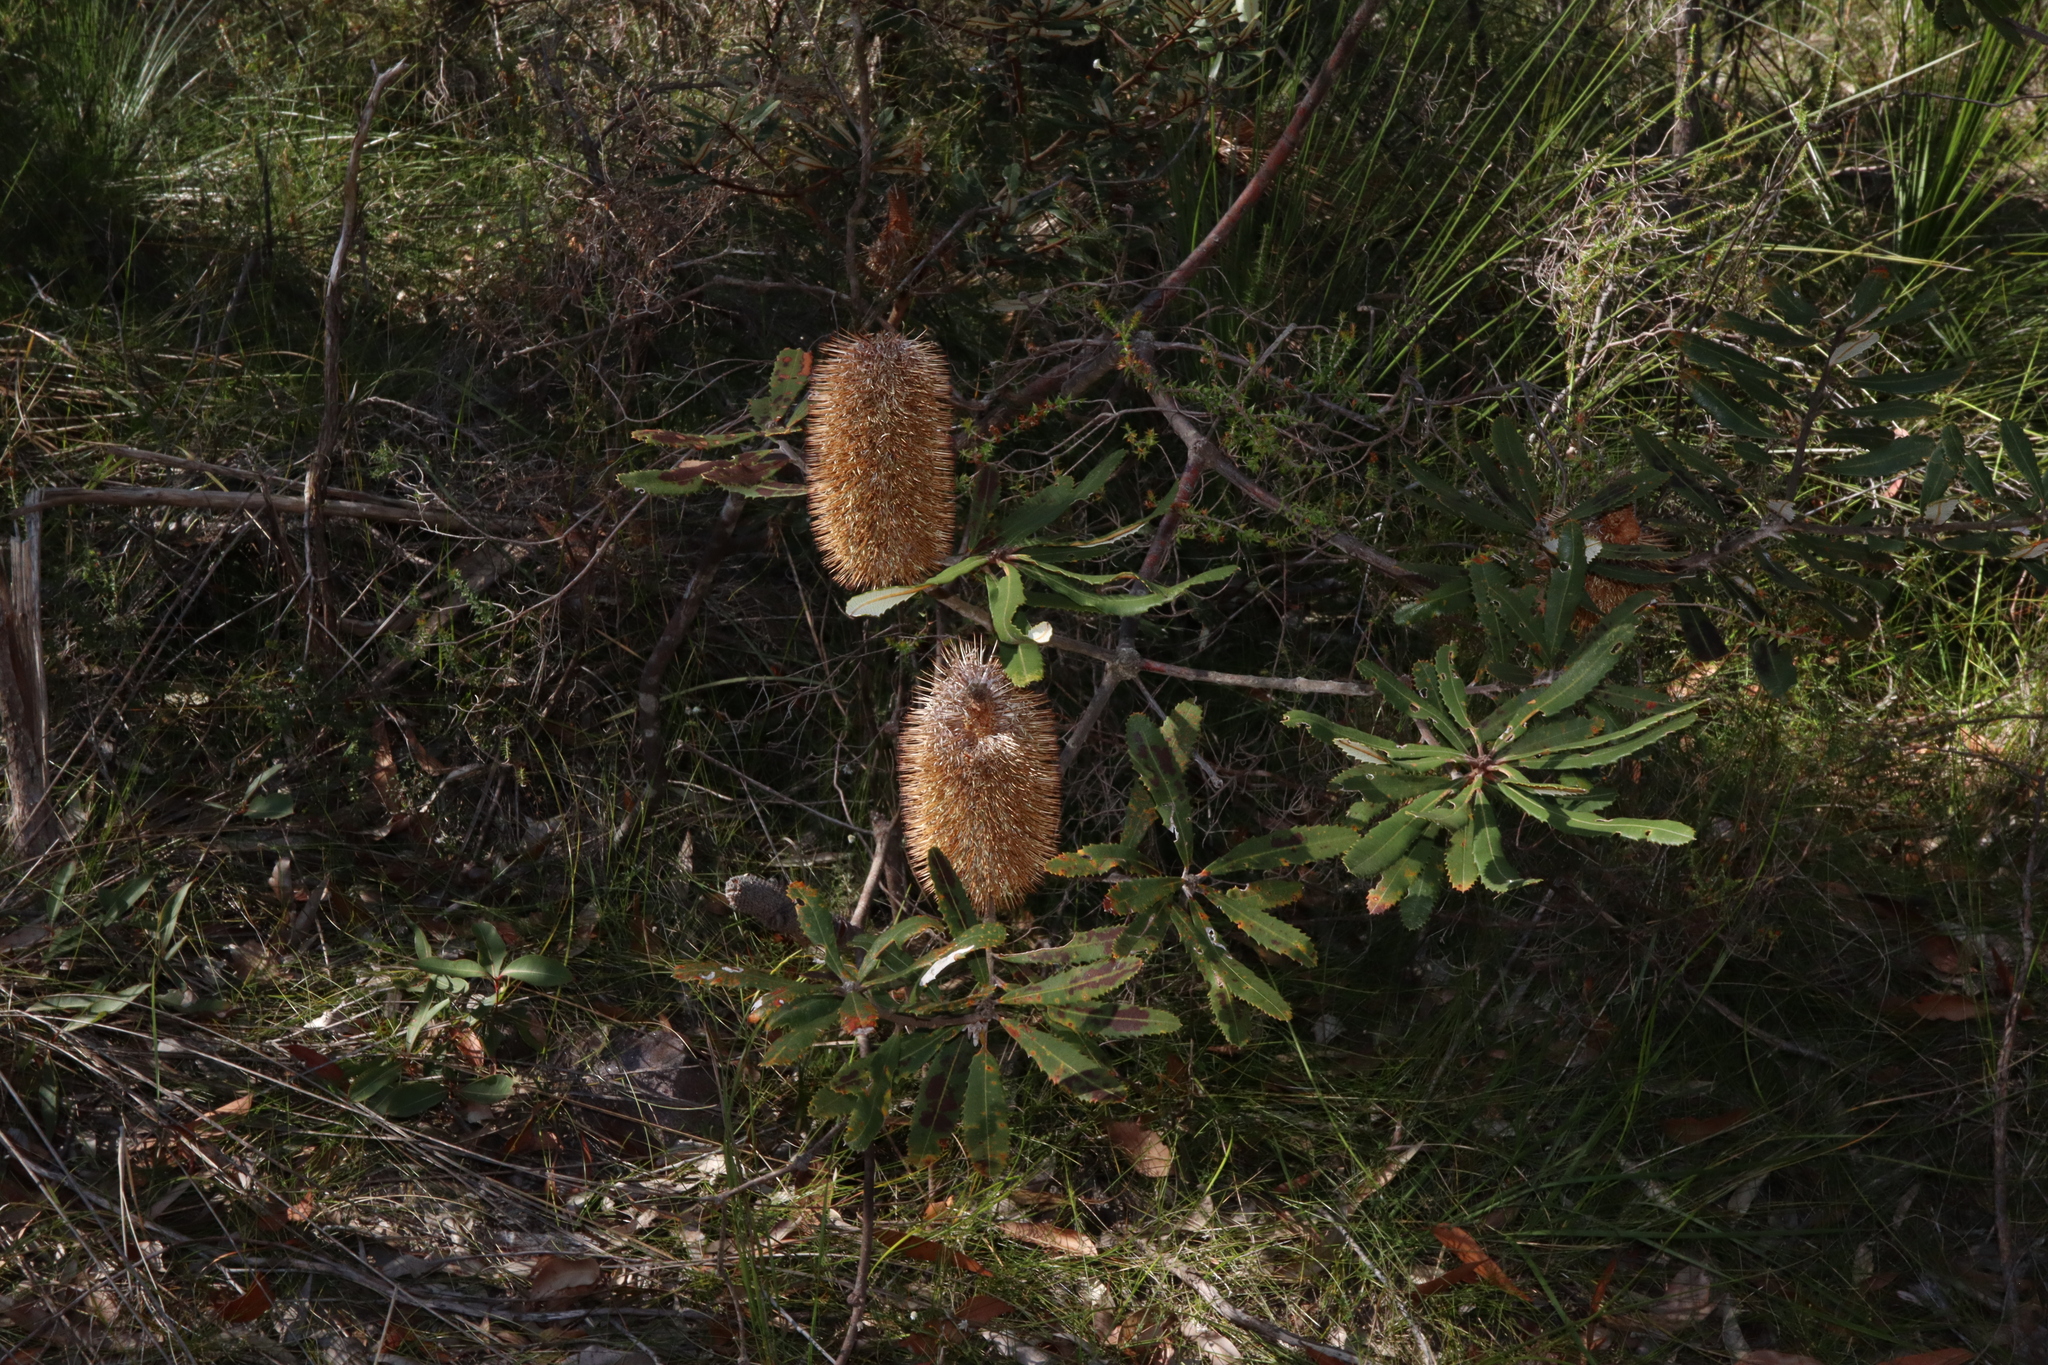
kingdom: Plantae
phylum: Tracheophyta
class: Magnoliopsida
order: Proteales
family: Proteaceae
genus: Banksia
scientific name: Banksia oblongifolia
